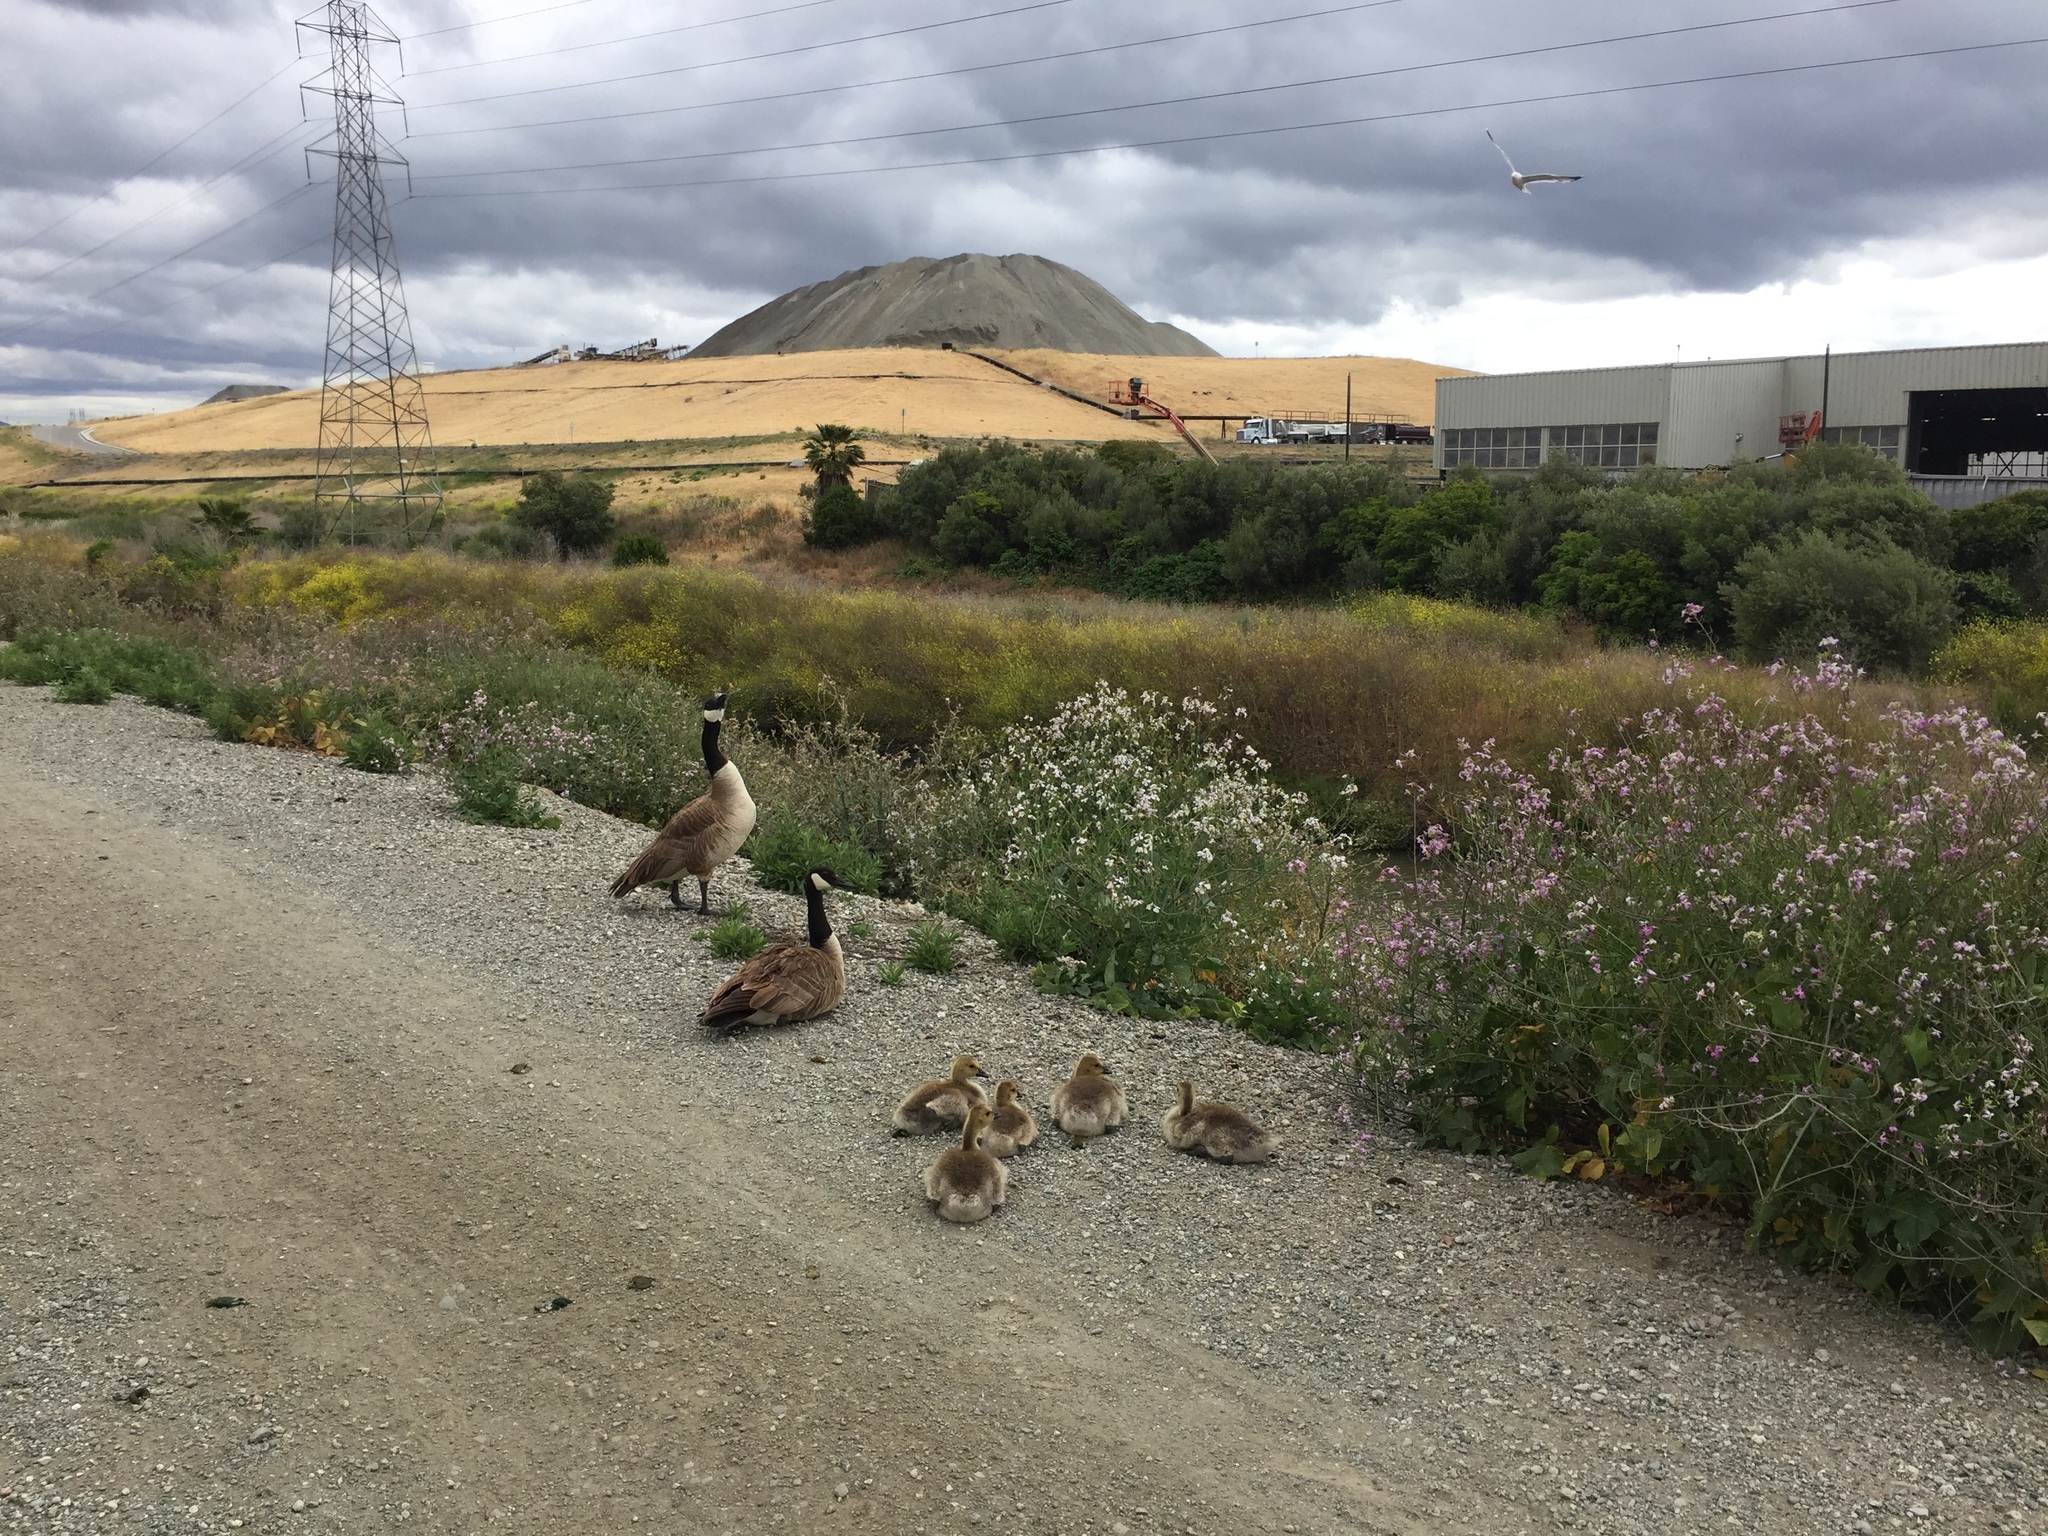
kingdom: Animalia
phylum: Chordata
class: Aves
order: Anseriformes
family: Anatidae
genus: Branta
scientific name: Branta canadensis
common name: Canada goose
